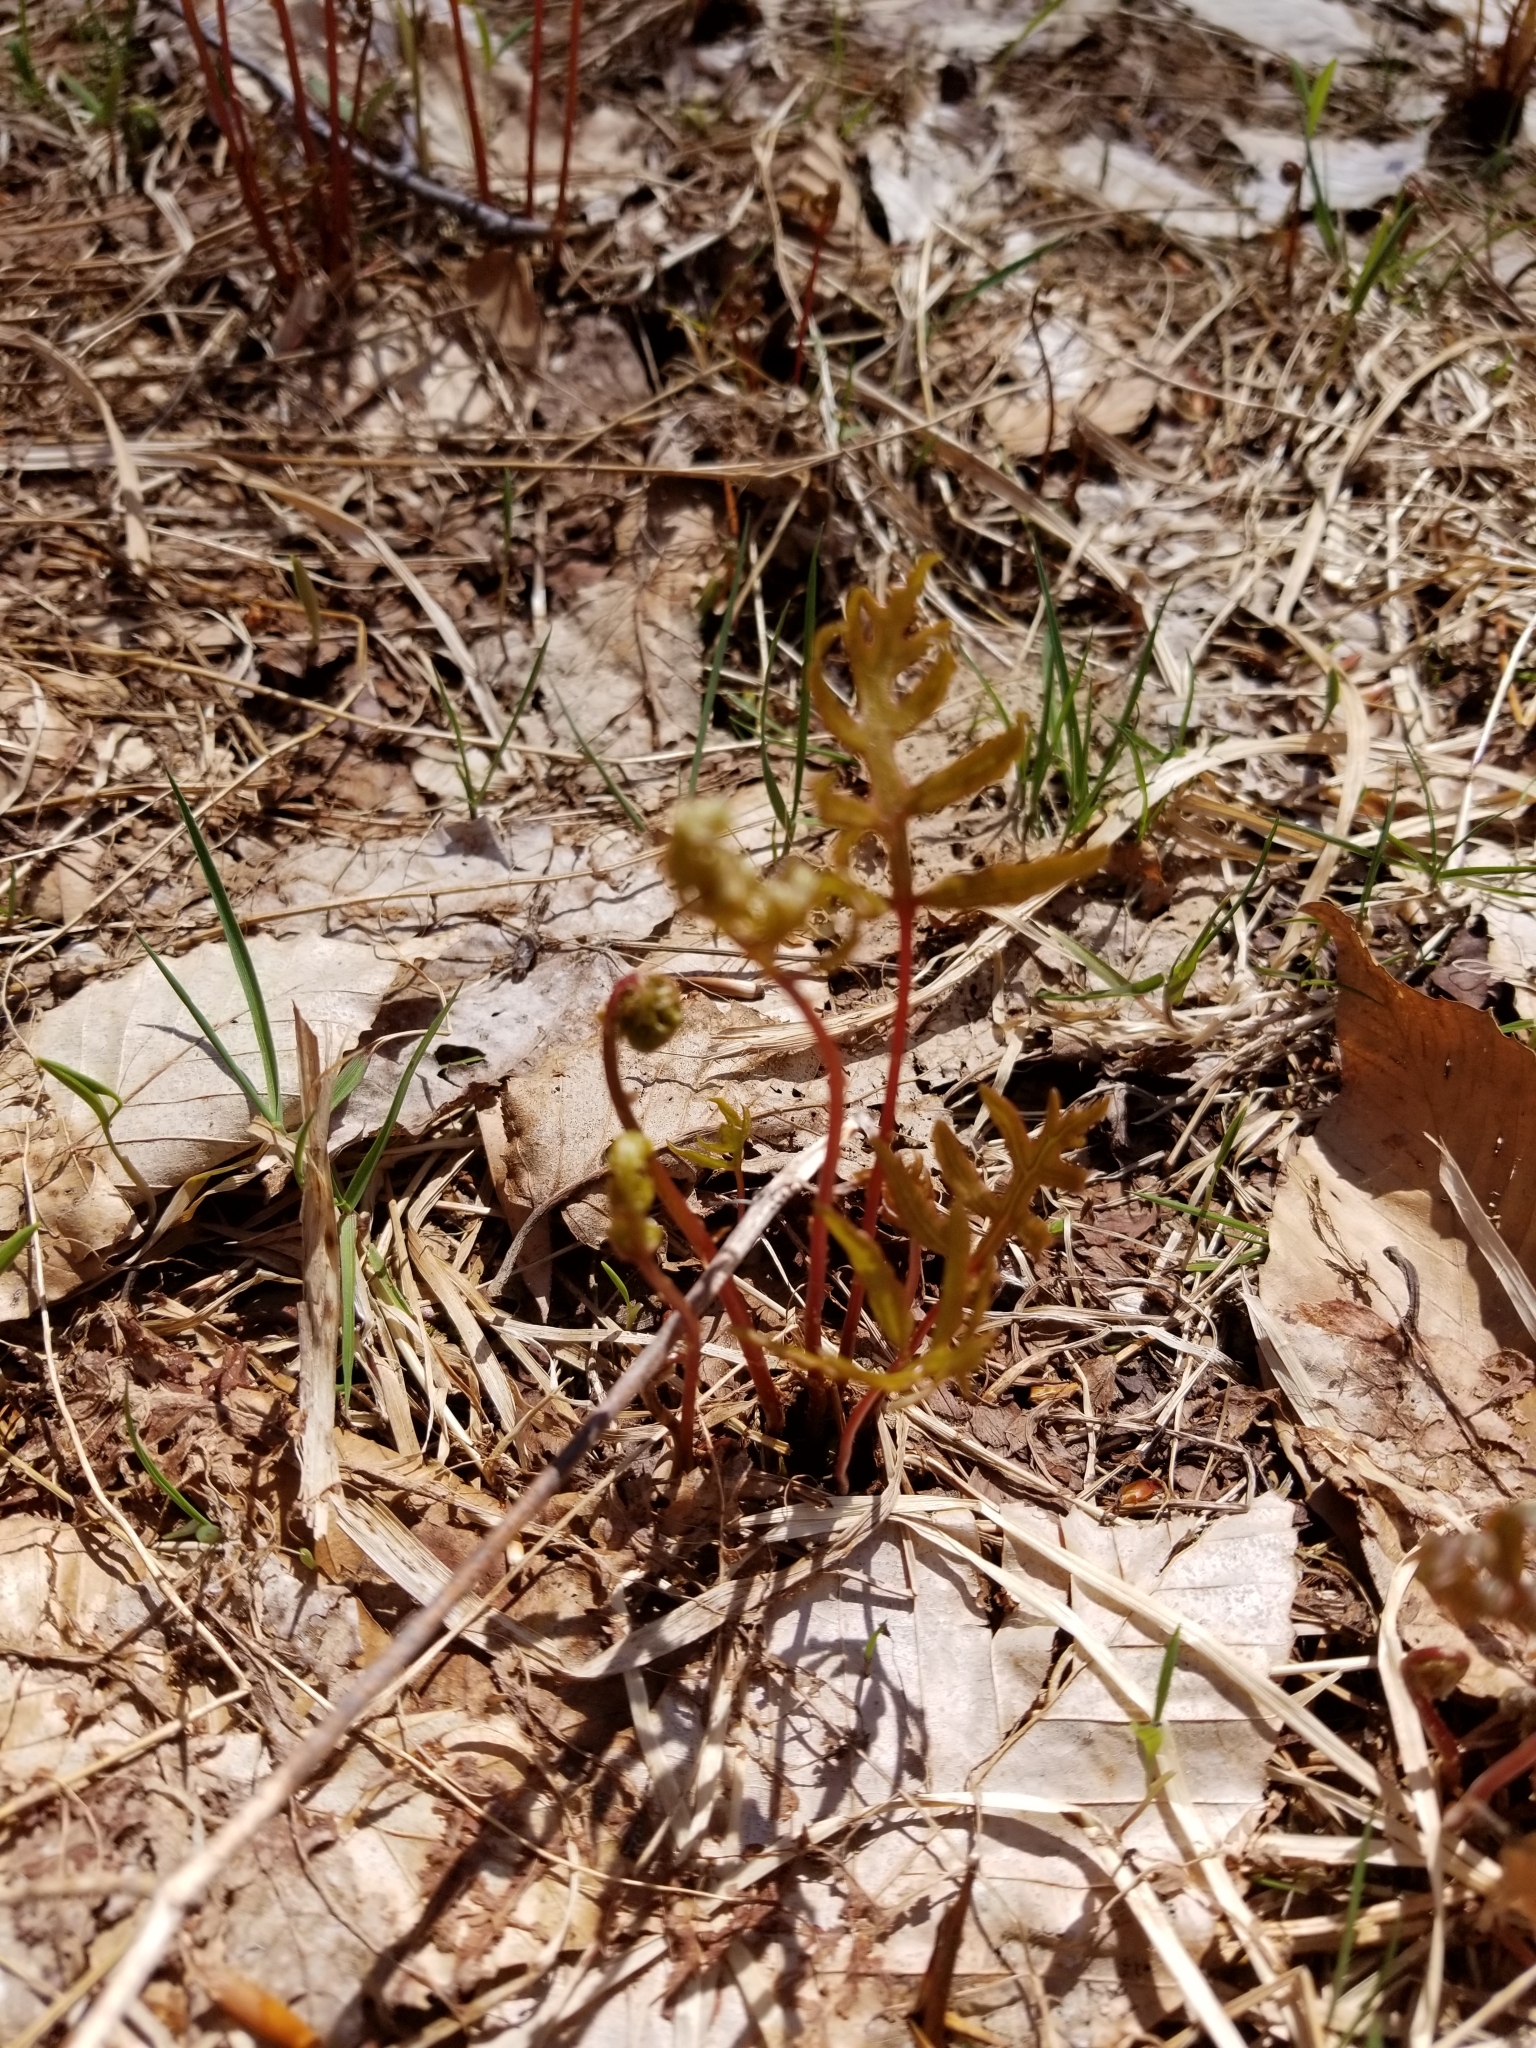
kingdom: Plantae
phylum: Tracheophyta
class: Polypodiopsida
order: Polypodiales
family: Onocleaceae
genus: Onoclea
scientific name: Onoclea sensibilis
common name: Sensitive fern
